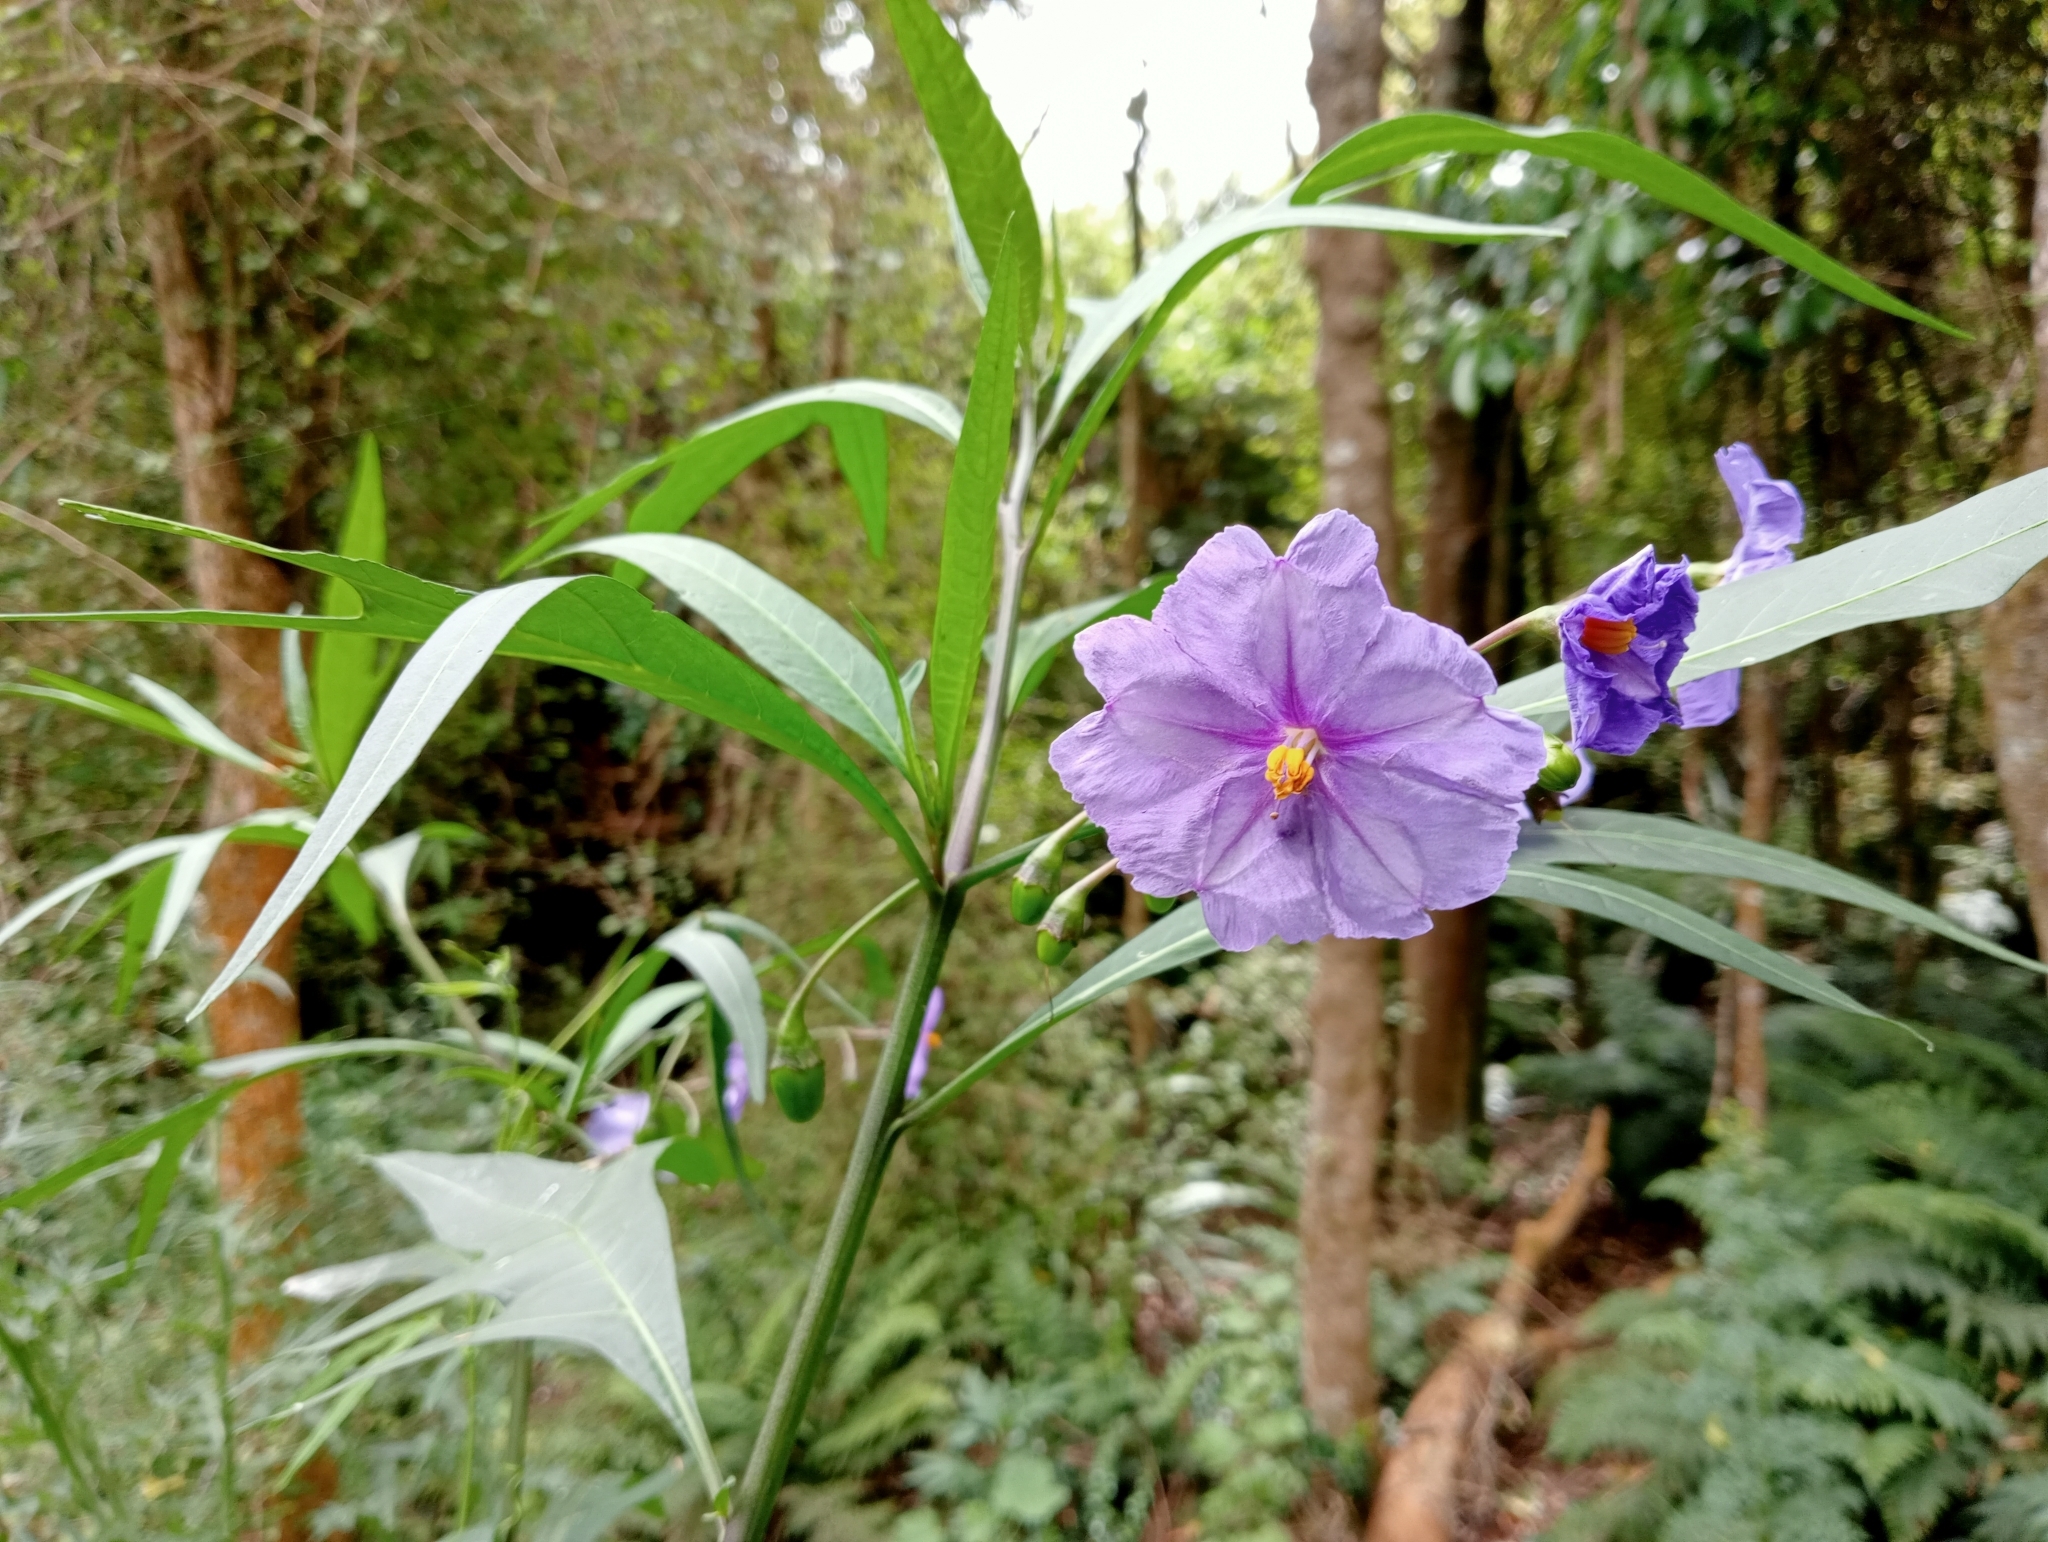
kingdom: Plantae
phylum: Tracheophyta
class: Magnoliopsida
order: Solanales
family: Solanaceae
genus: Solanum
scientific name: Solanum laciniatum
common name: Kangaroo-apple
